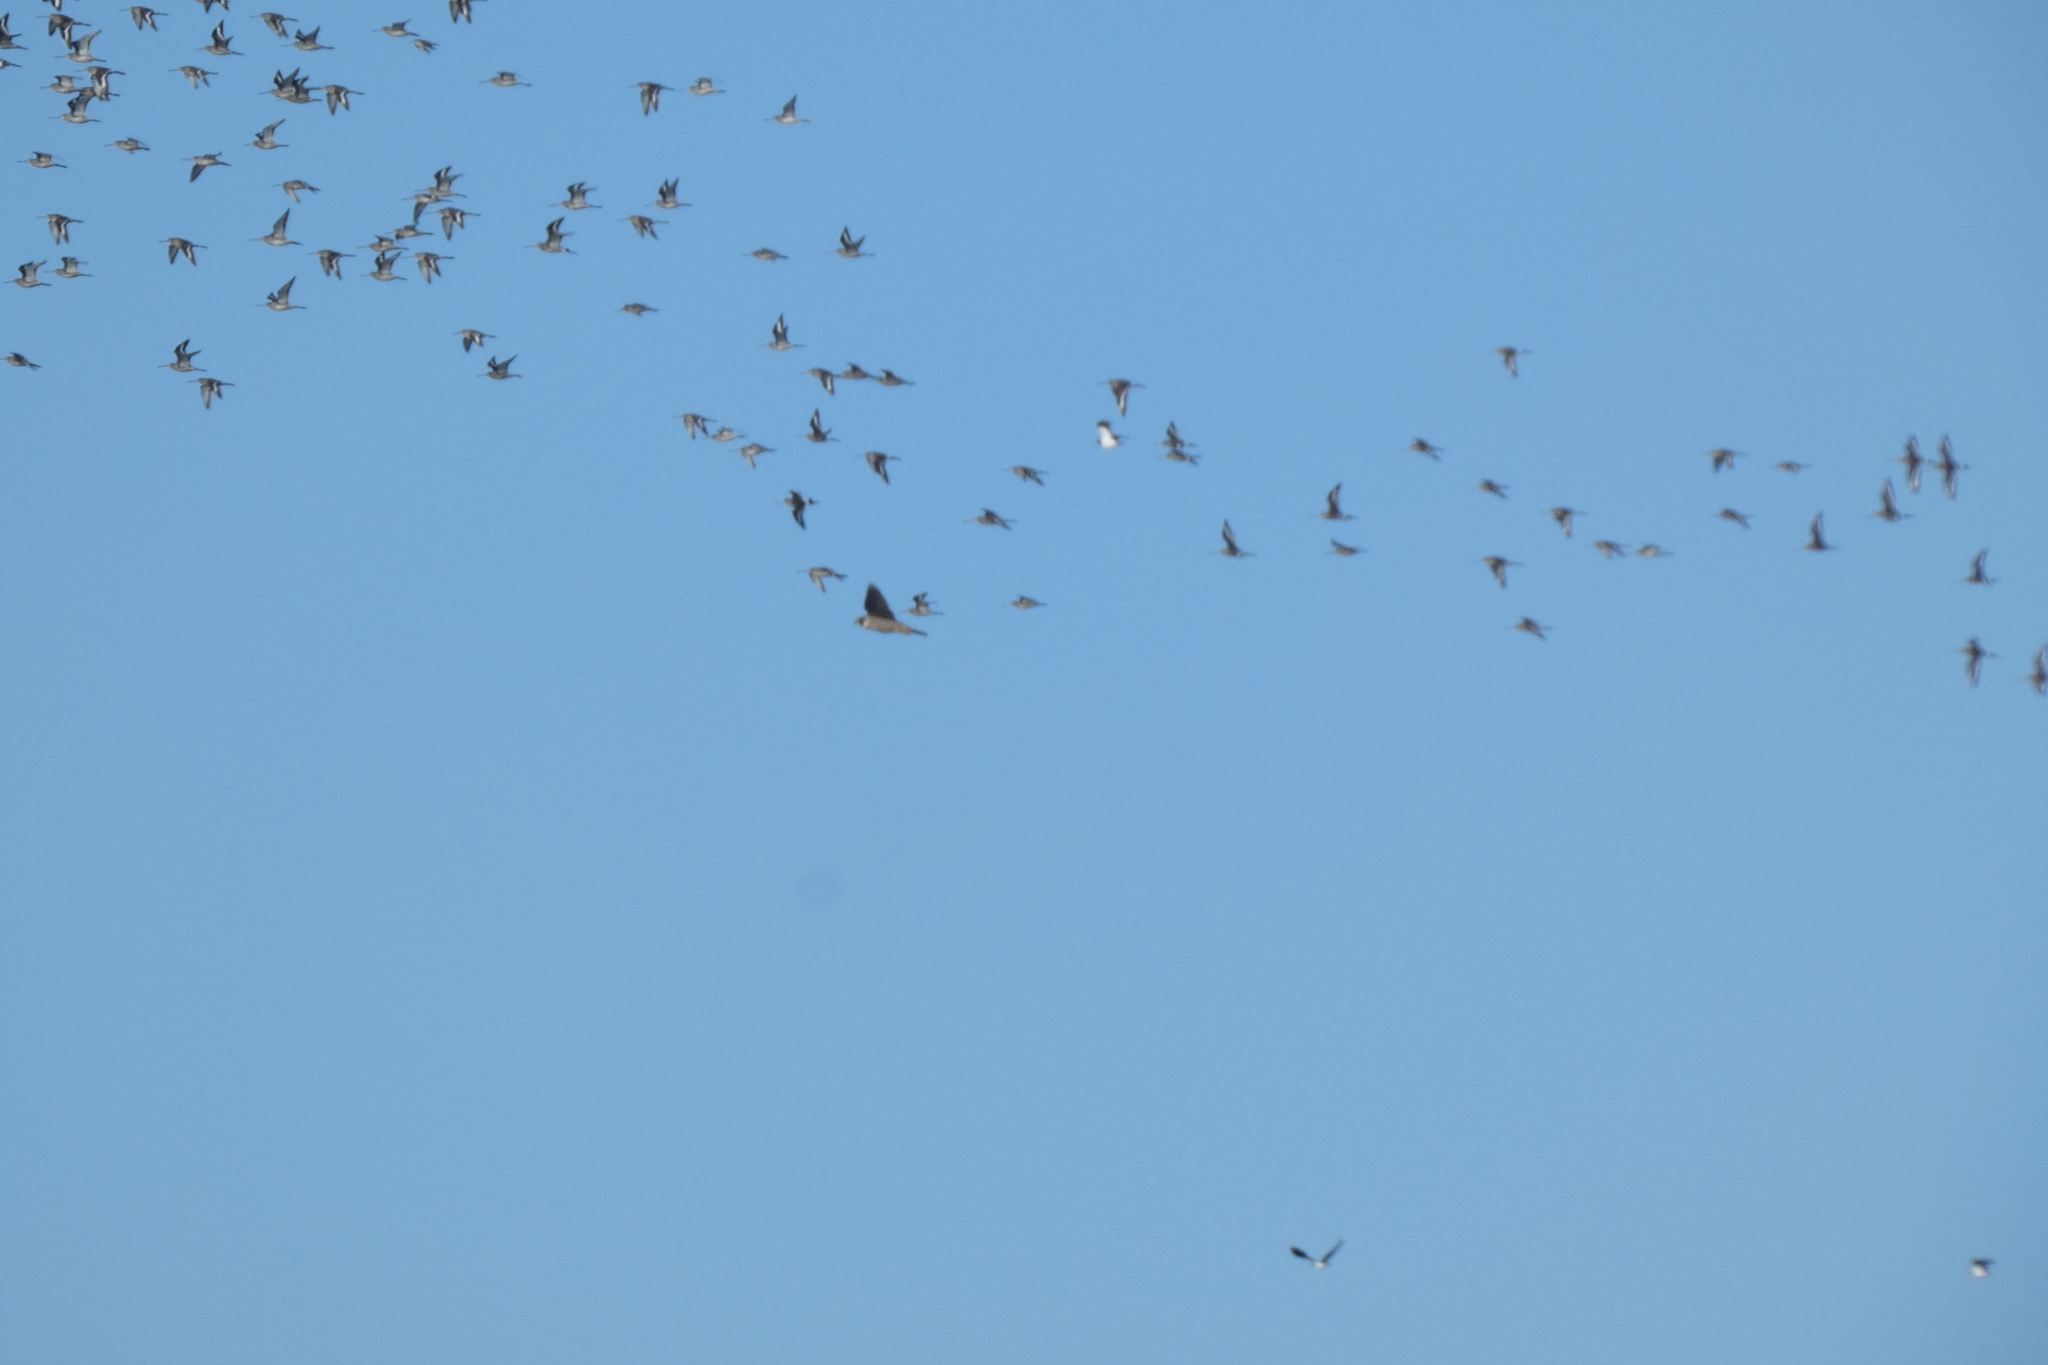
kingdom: Animalia
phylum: Chordata
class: Aves
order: Falconiformes
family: Falconidae
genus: Falco
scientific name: Falco peregrinus
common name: Peregrine falcon
